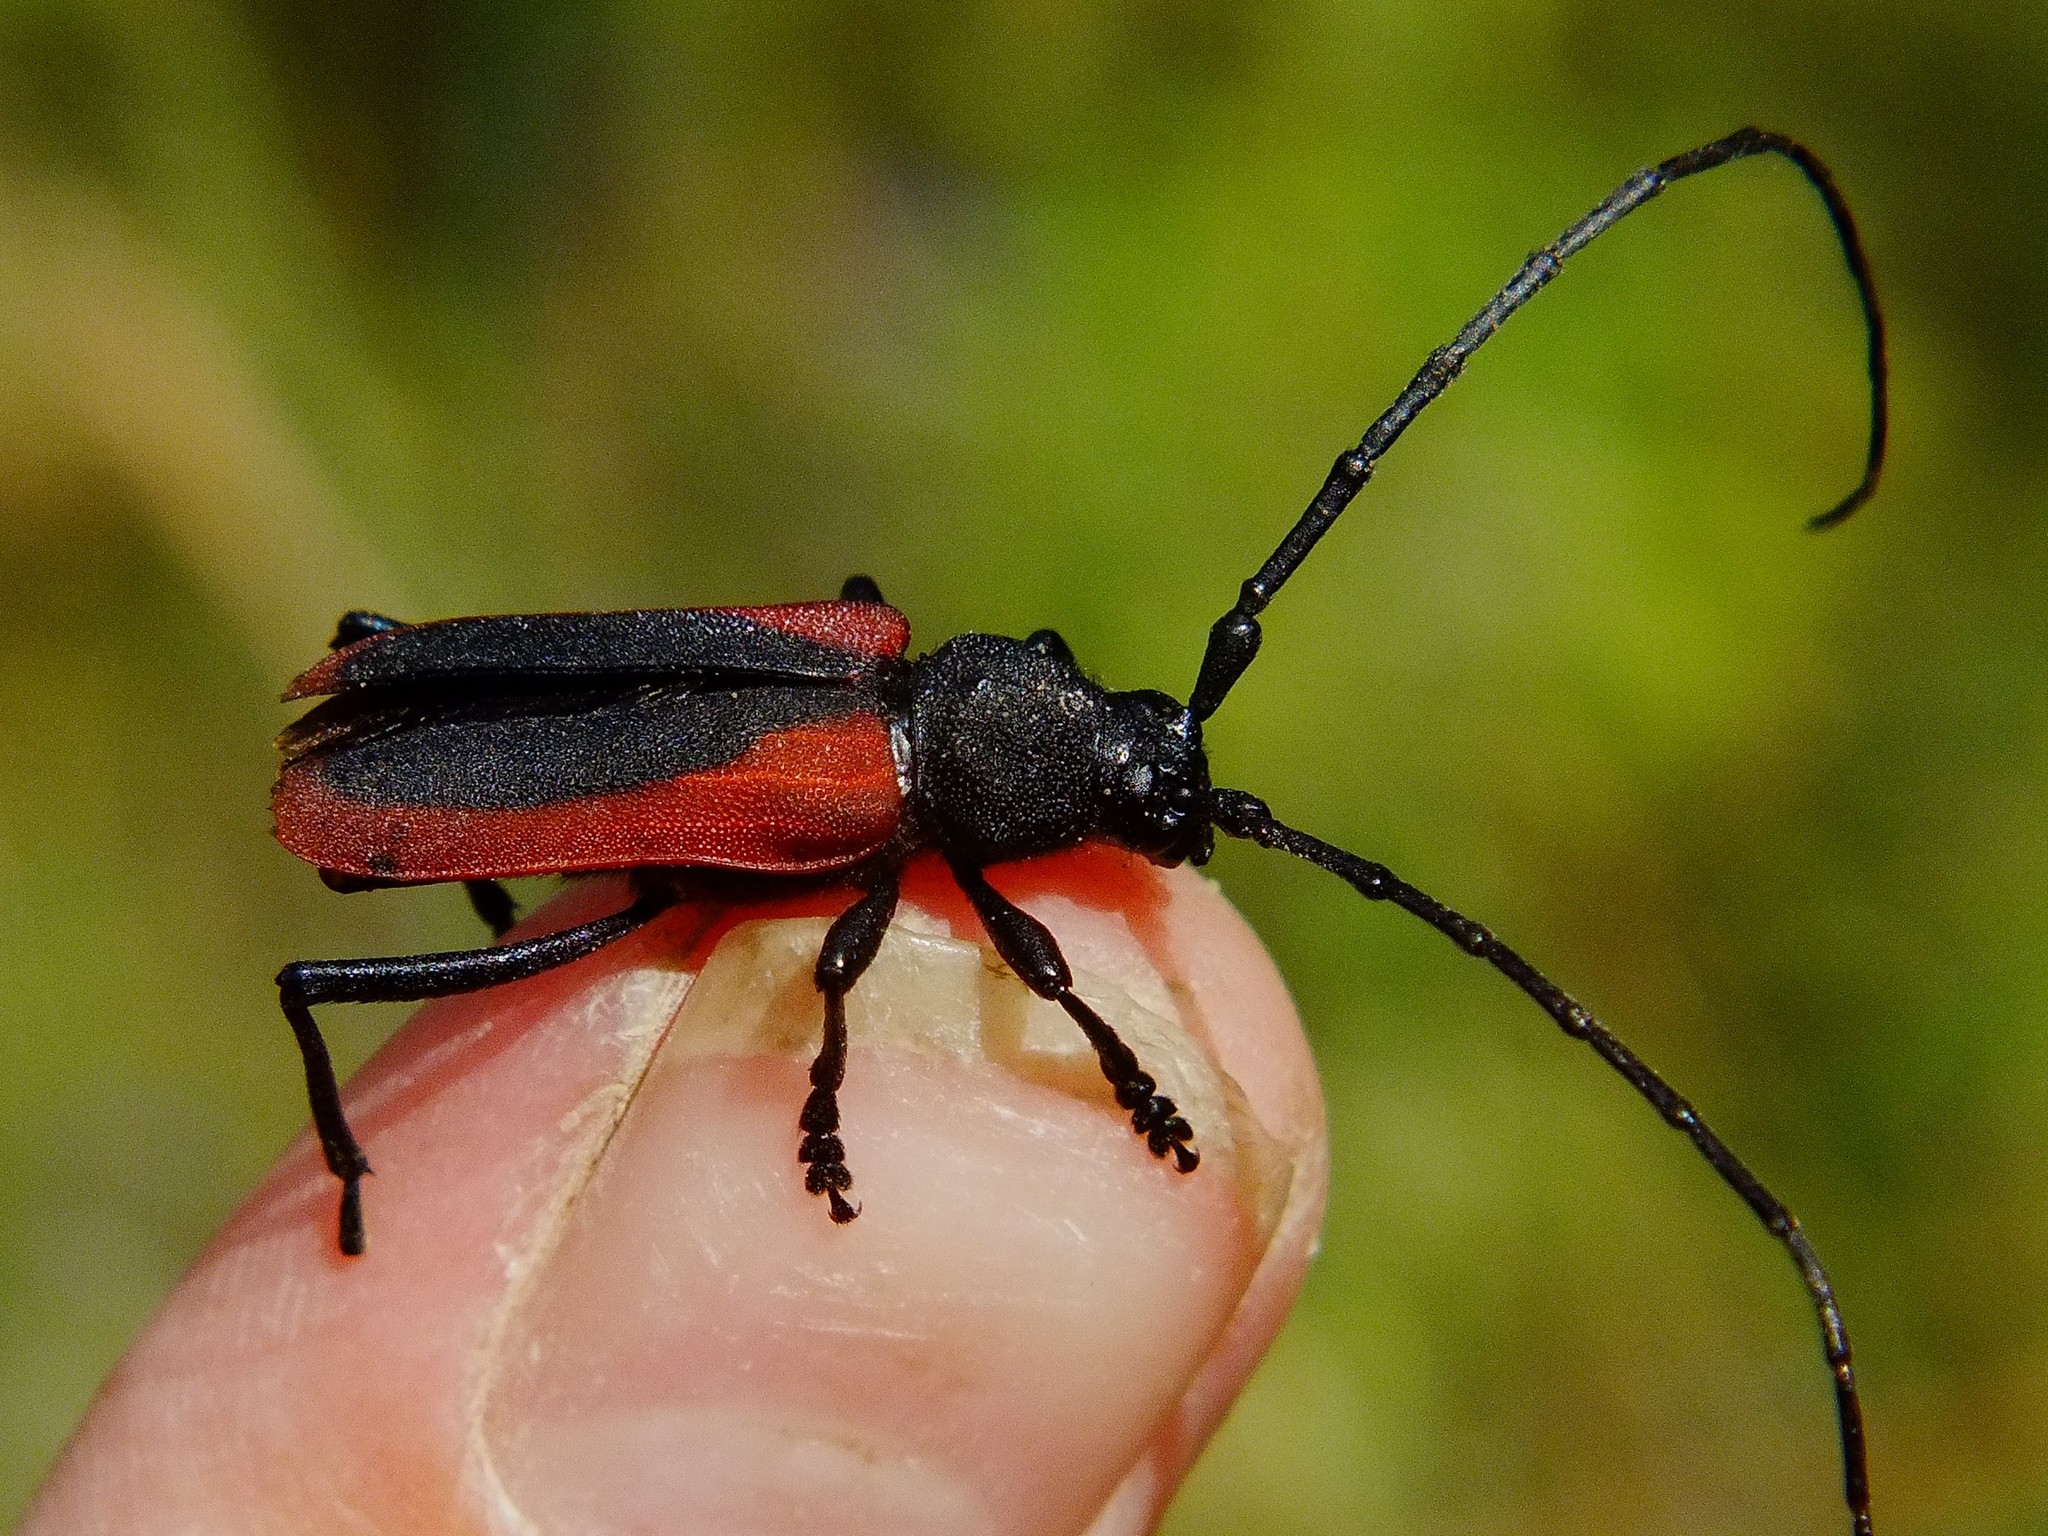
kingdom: Animalia
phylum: Arthropoda
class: Insecta
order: Coleoptera
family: Cerambycidae
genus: Purpuricenus
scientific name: Purpuricenus kaehleri
